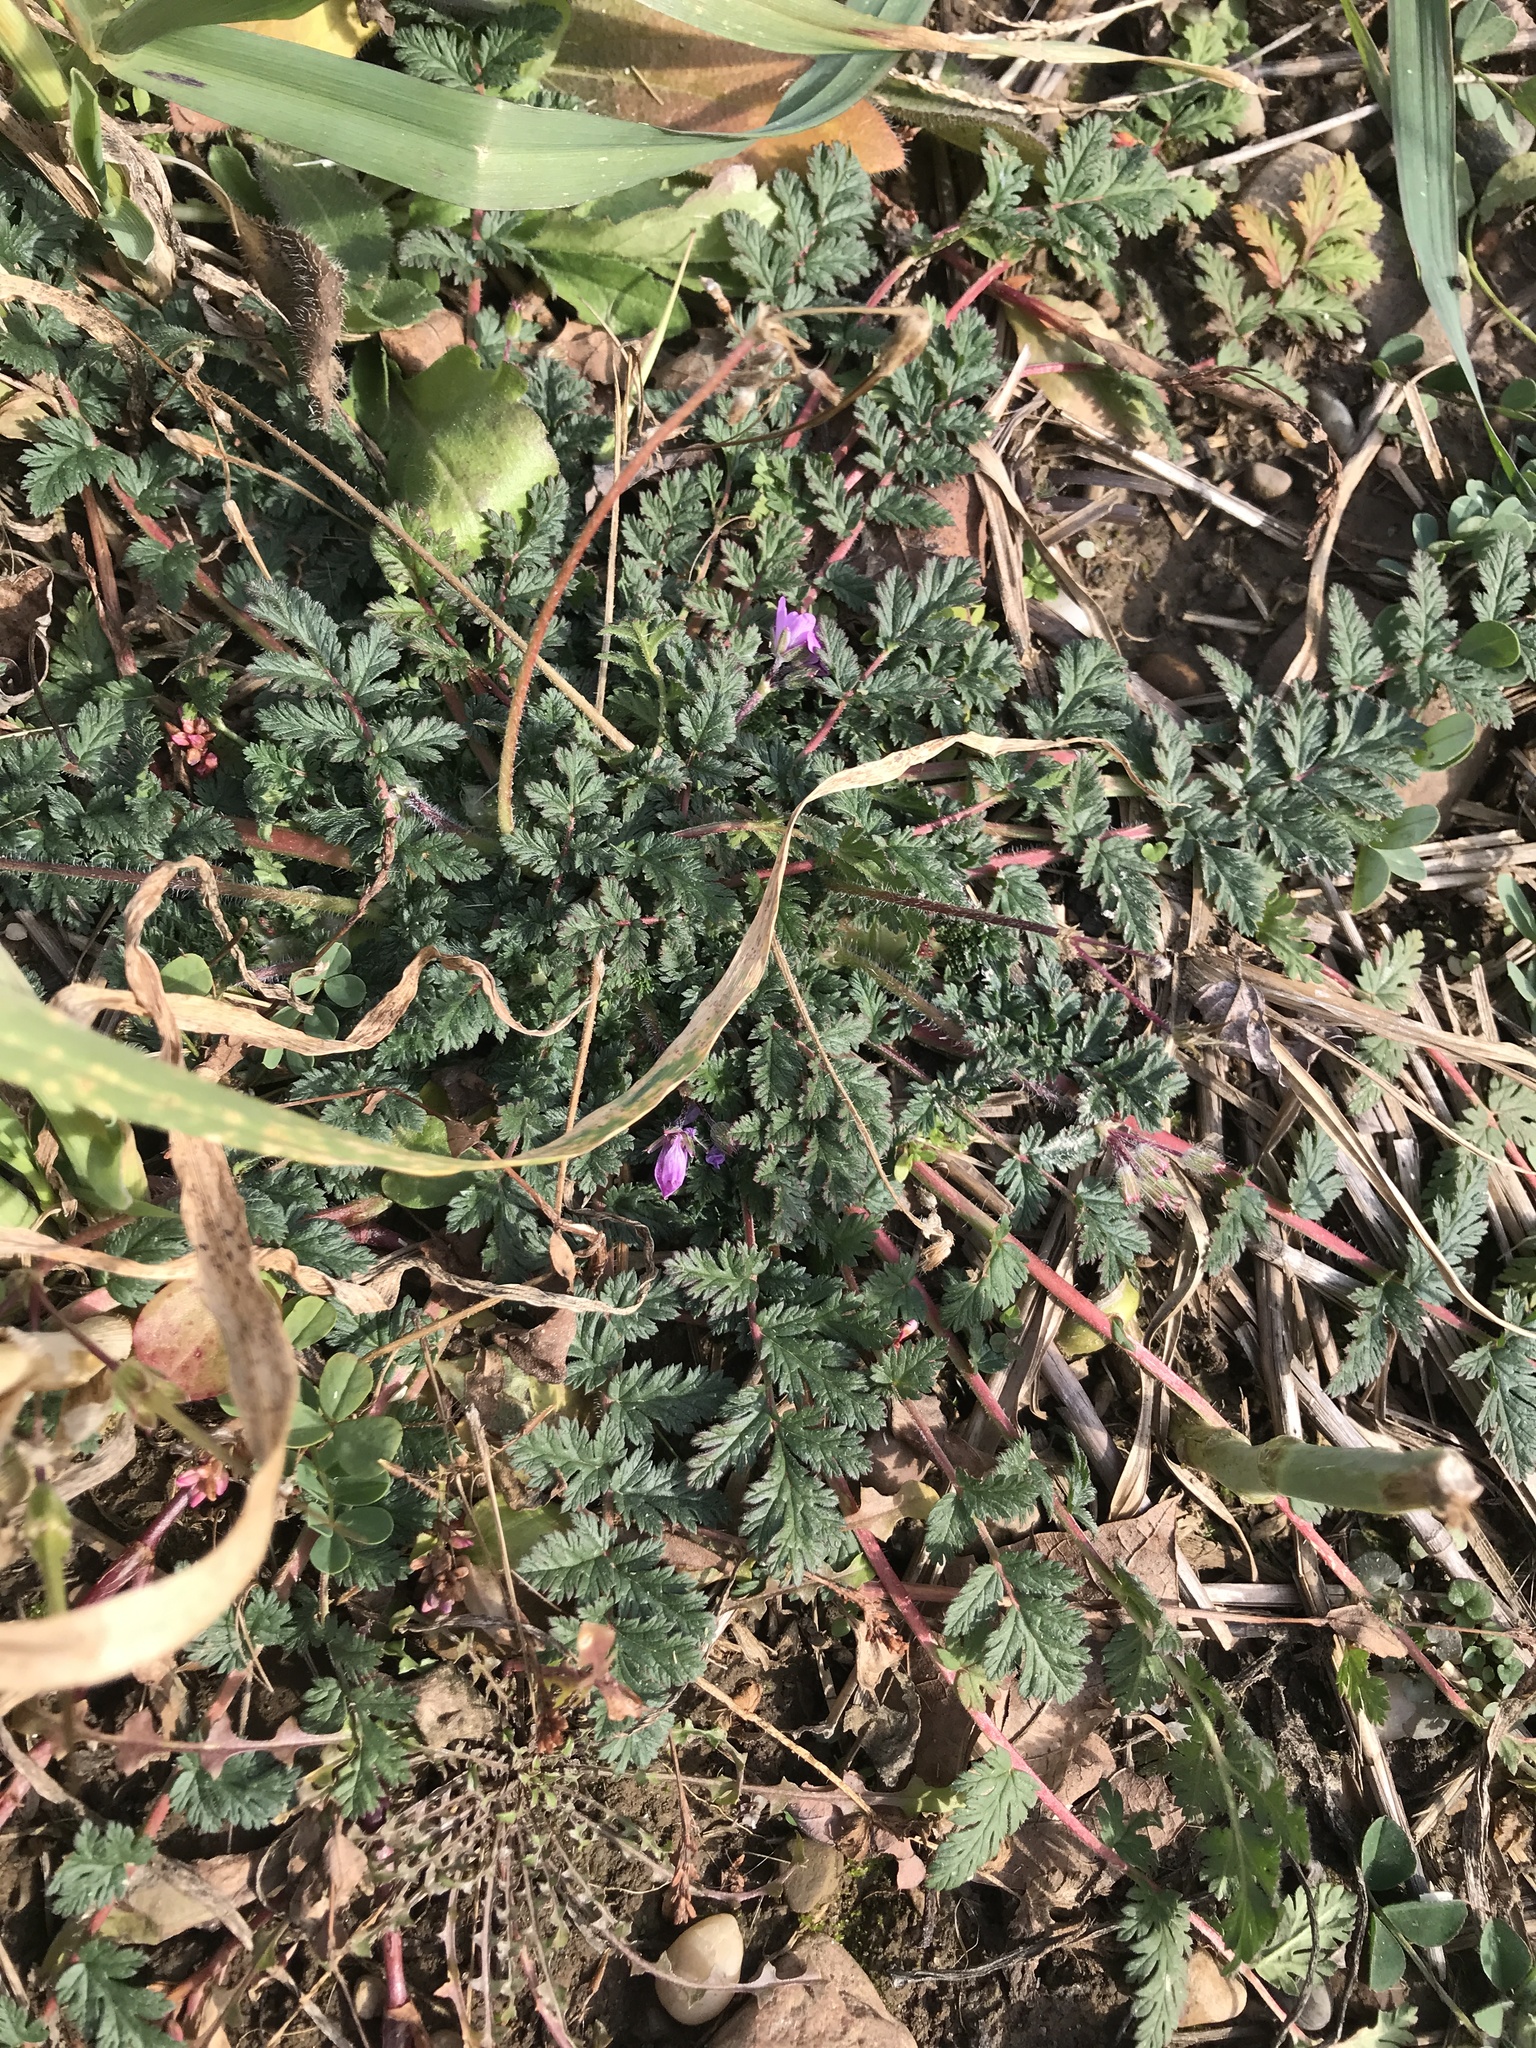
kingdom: Plantae
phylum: Tracheophyta
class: Magnoliopsida
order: Geraniales
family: Geraniaceae
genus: Erodium
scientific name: Erodium cicutarium
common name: Common stork's-bill
